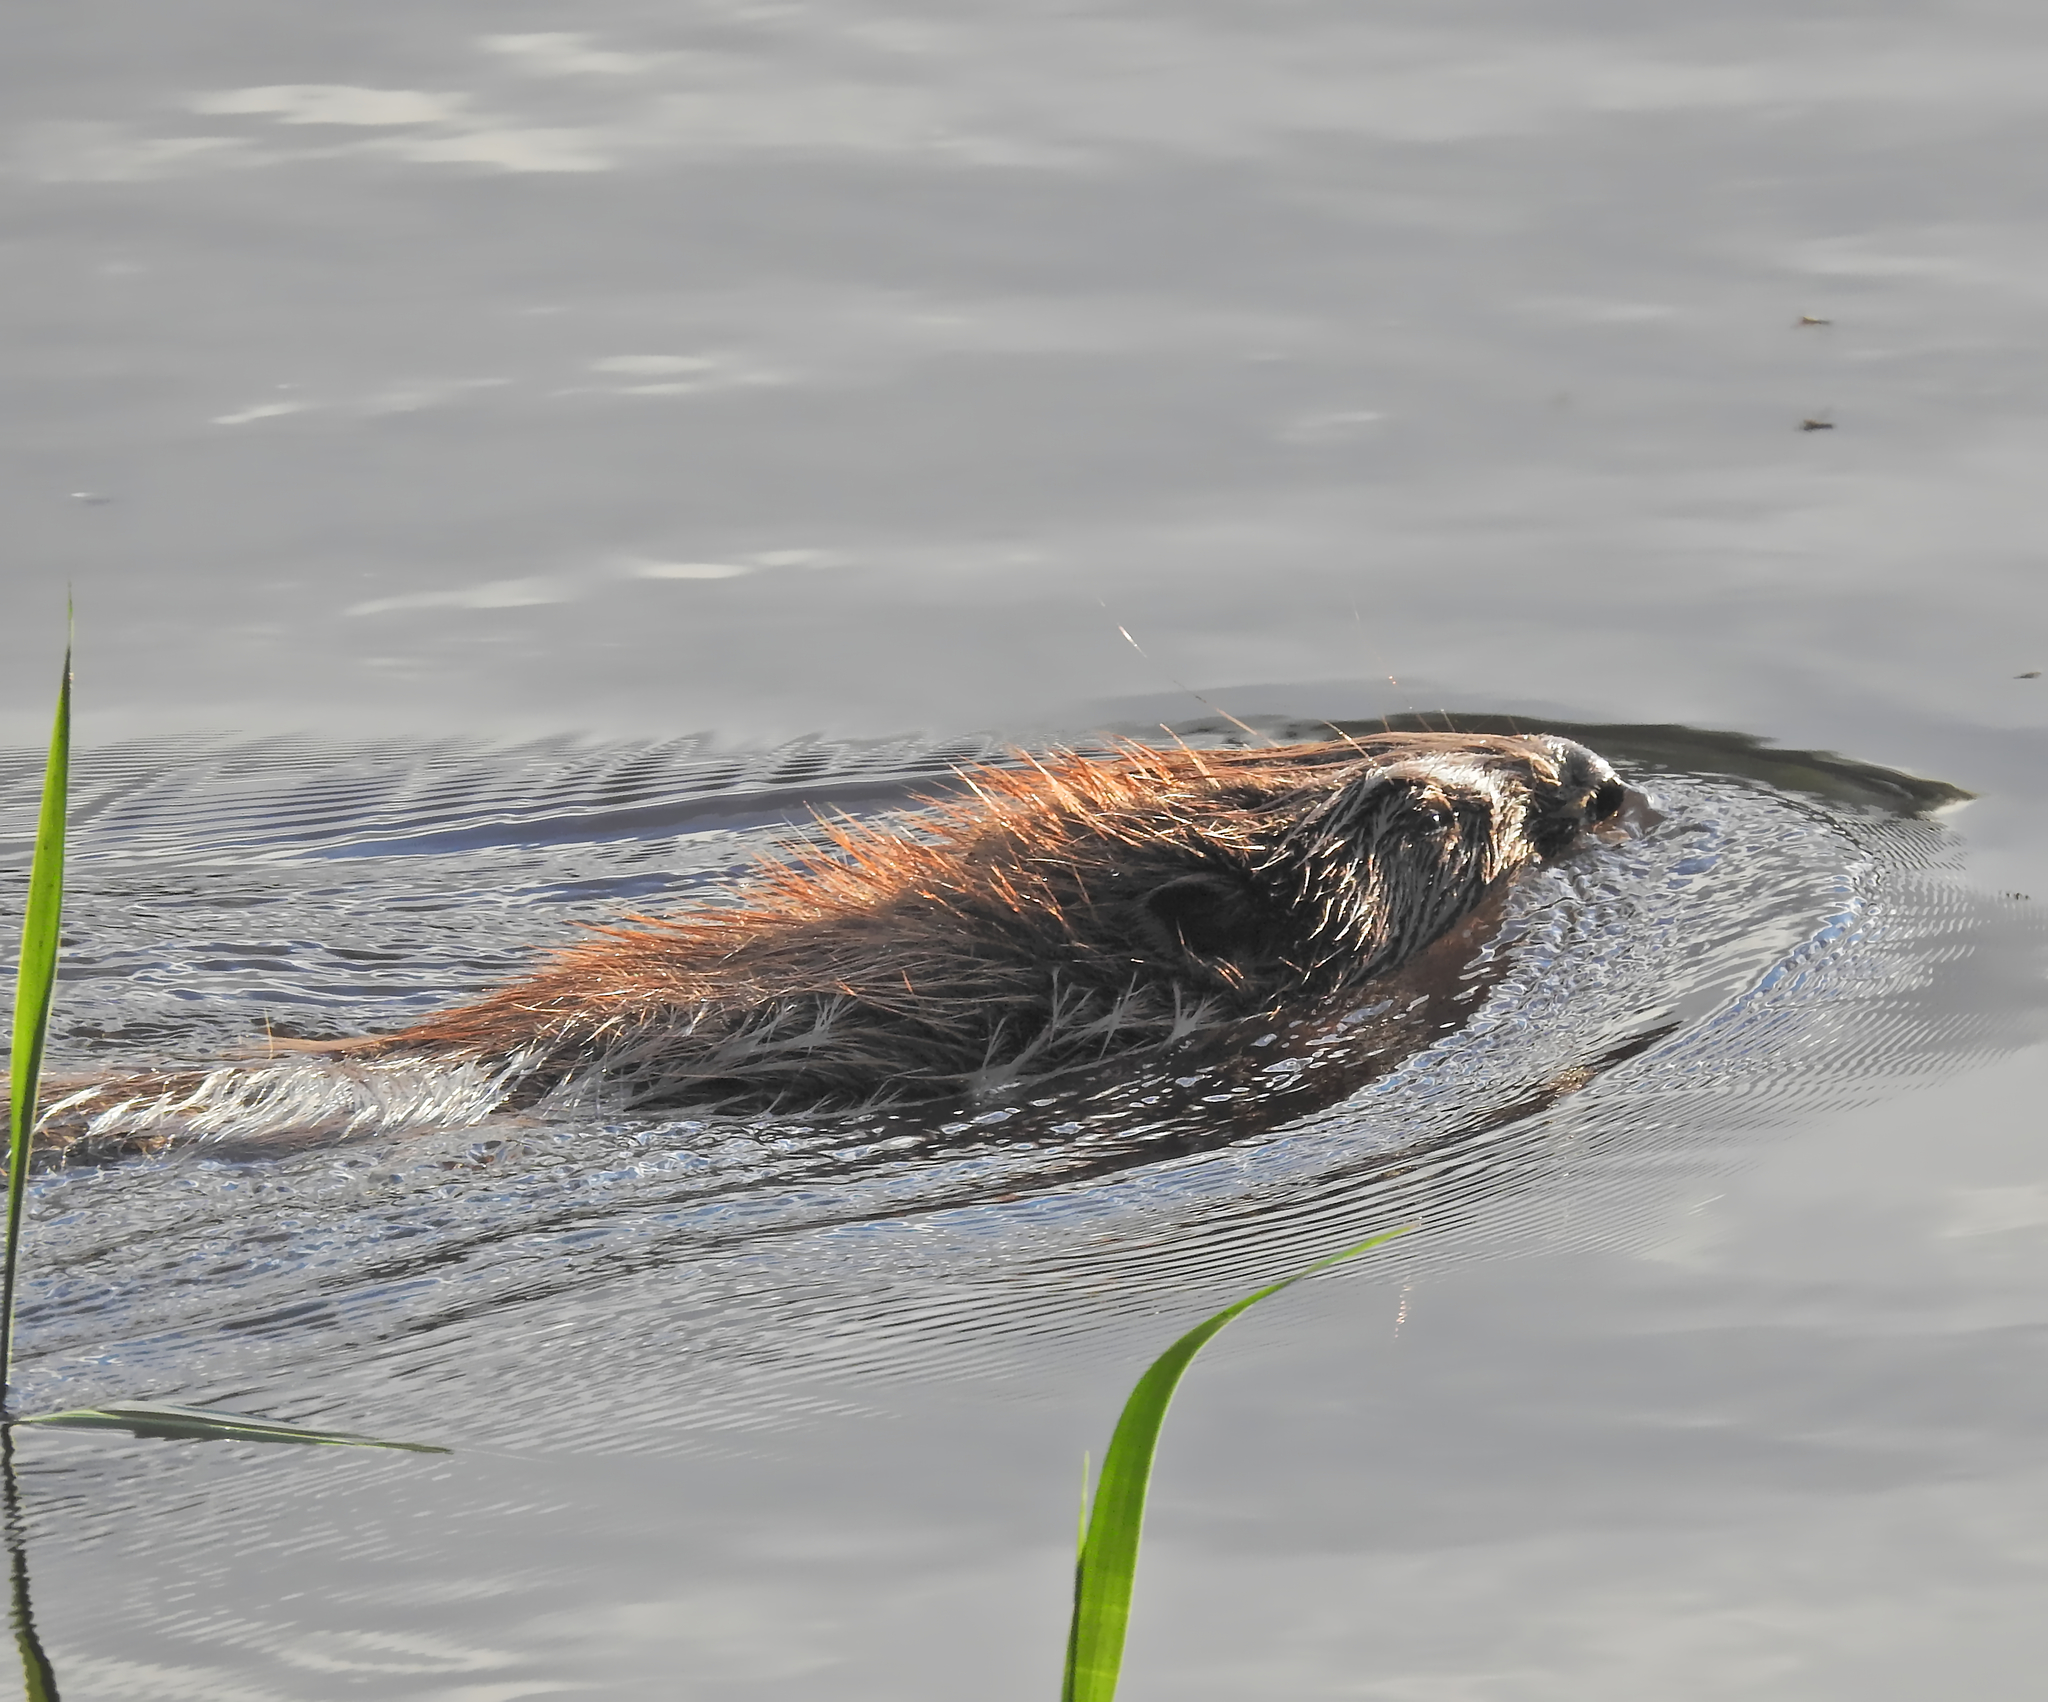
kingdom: Animalia
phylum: Chordata
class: Mammalia
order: Rodentia
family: Castoridae
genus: Castor
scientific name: Castor fiber
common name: Eurasian beaver
